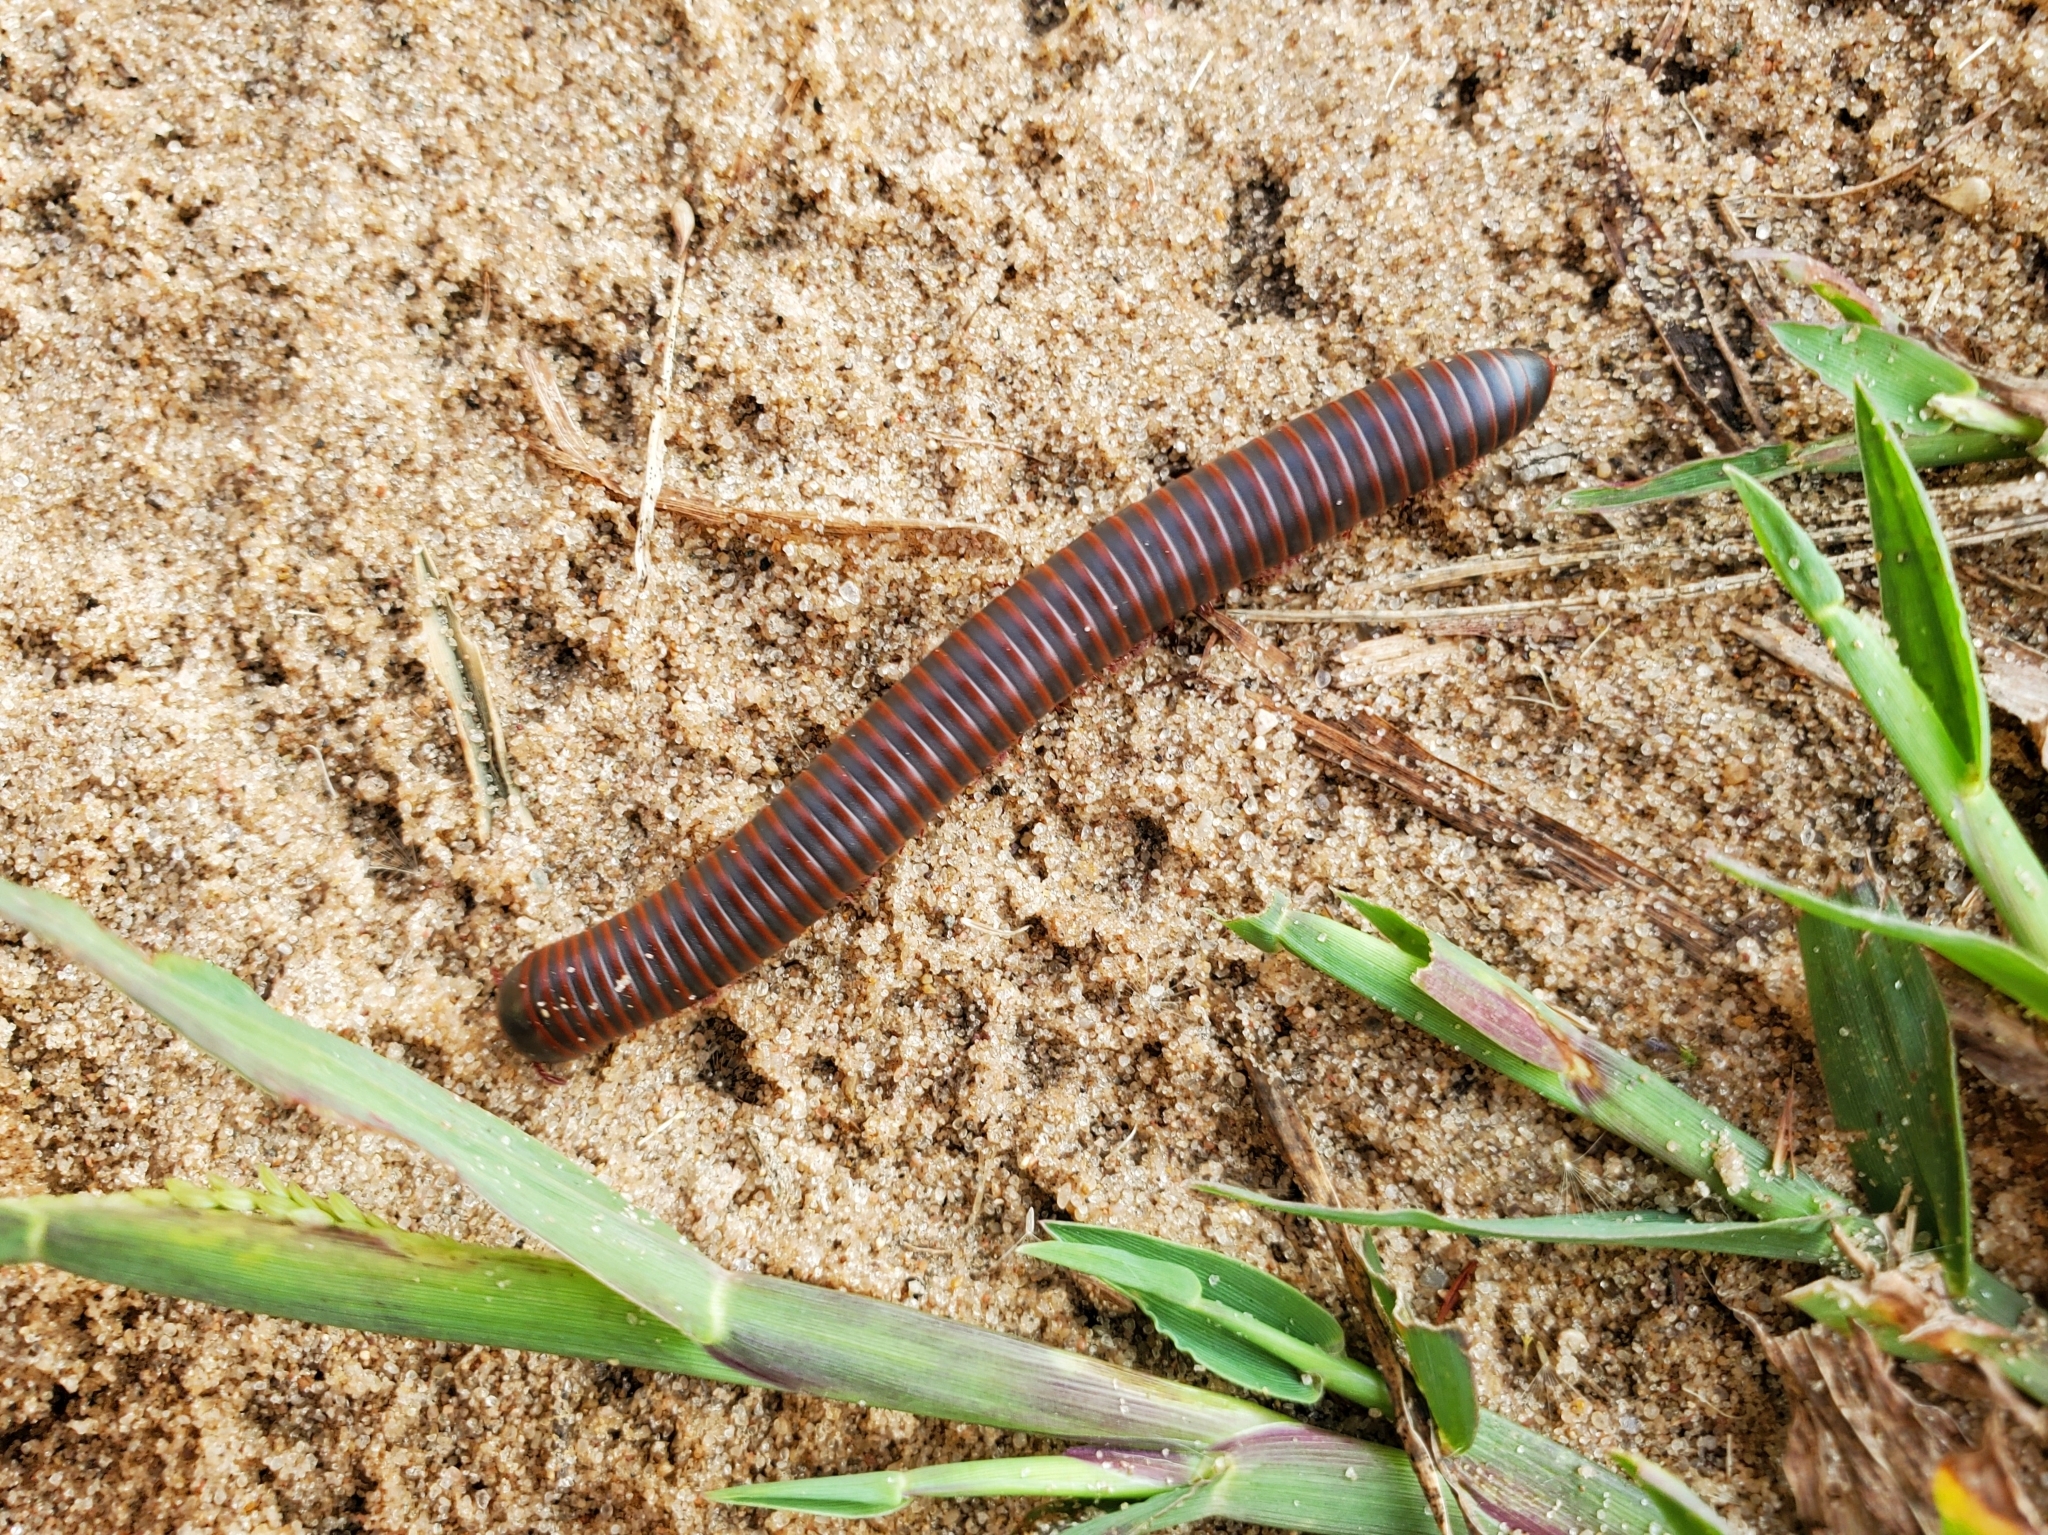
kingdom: Animalia
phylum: Arthropoda
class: Diplopoda
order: Spirobolida
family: Spirobolidae
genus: Narceus
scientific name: Narceus
